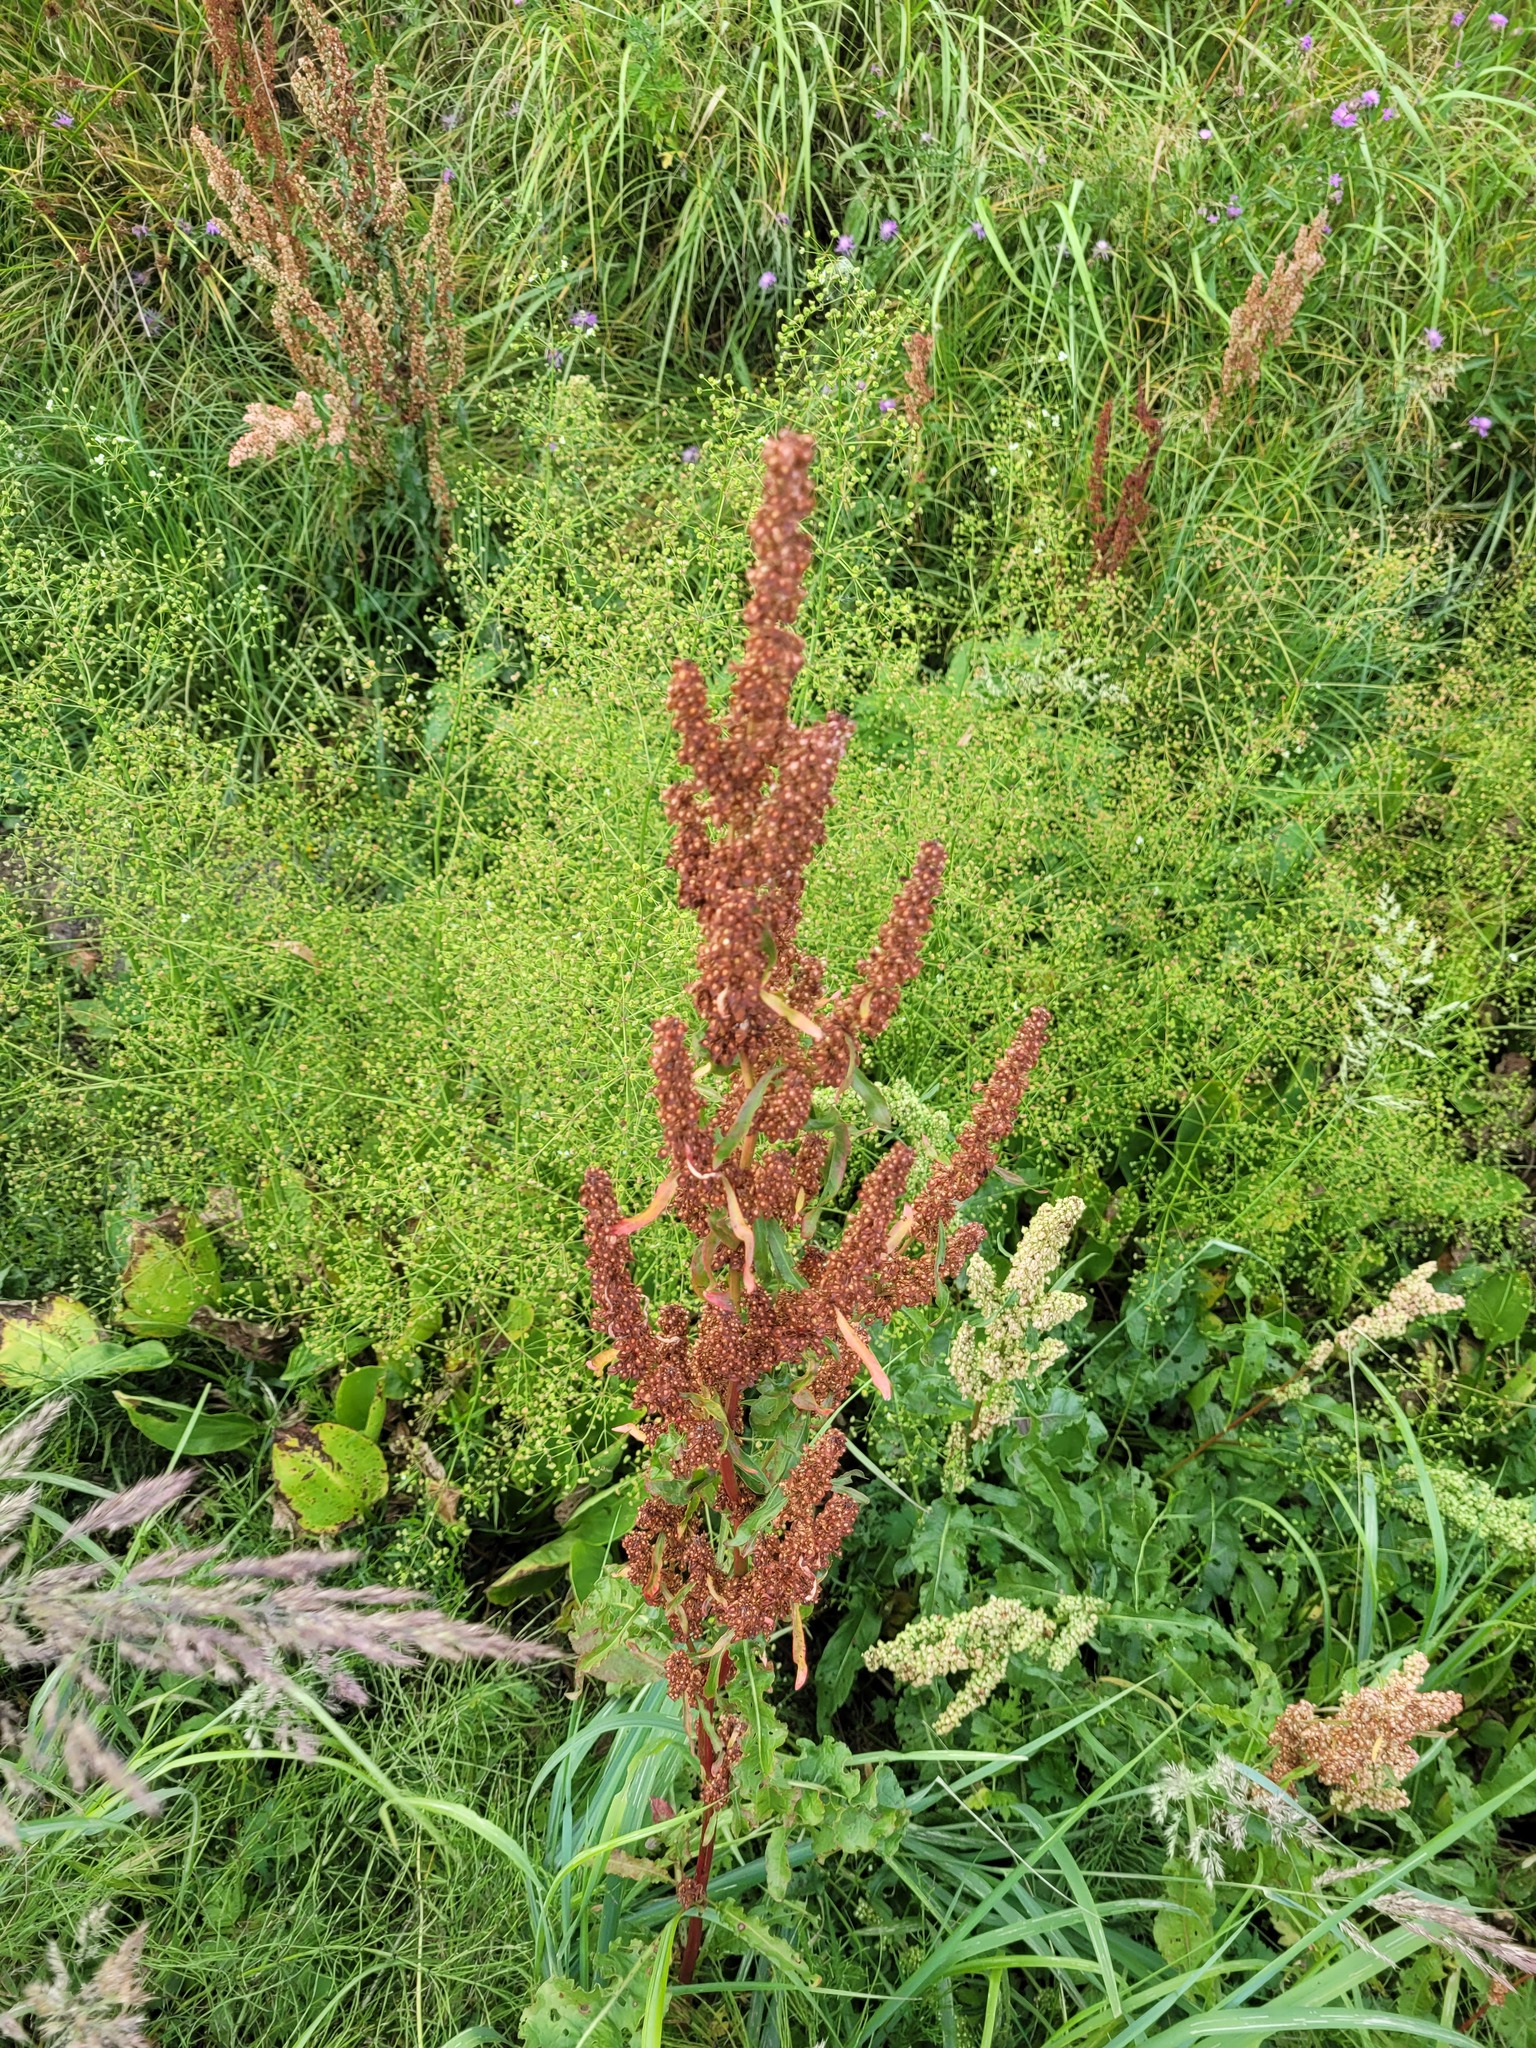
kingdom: Plantae
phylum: Tracheophyta
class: Magnoliopsida
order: Caryophyllales
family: Polygonaceae
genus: Rumex
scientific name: Rumex crispus
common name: Curled dock
